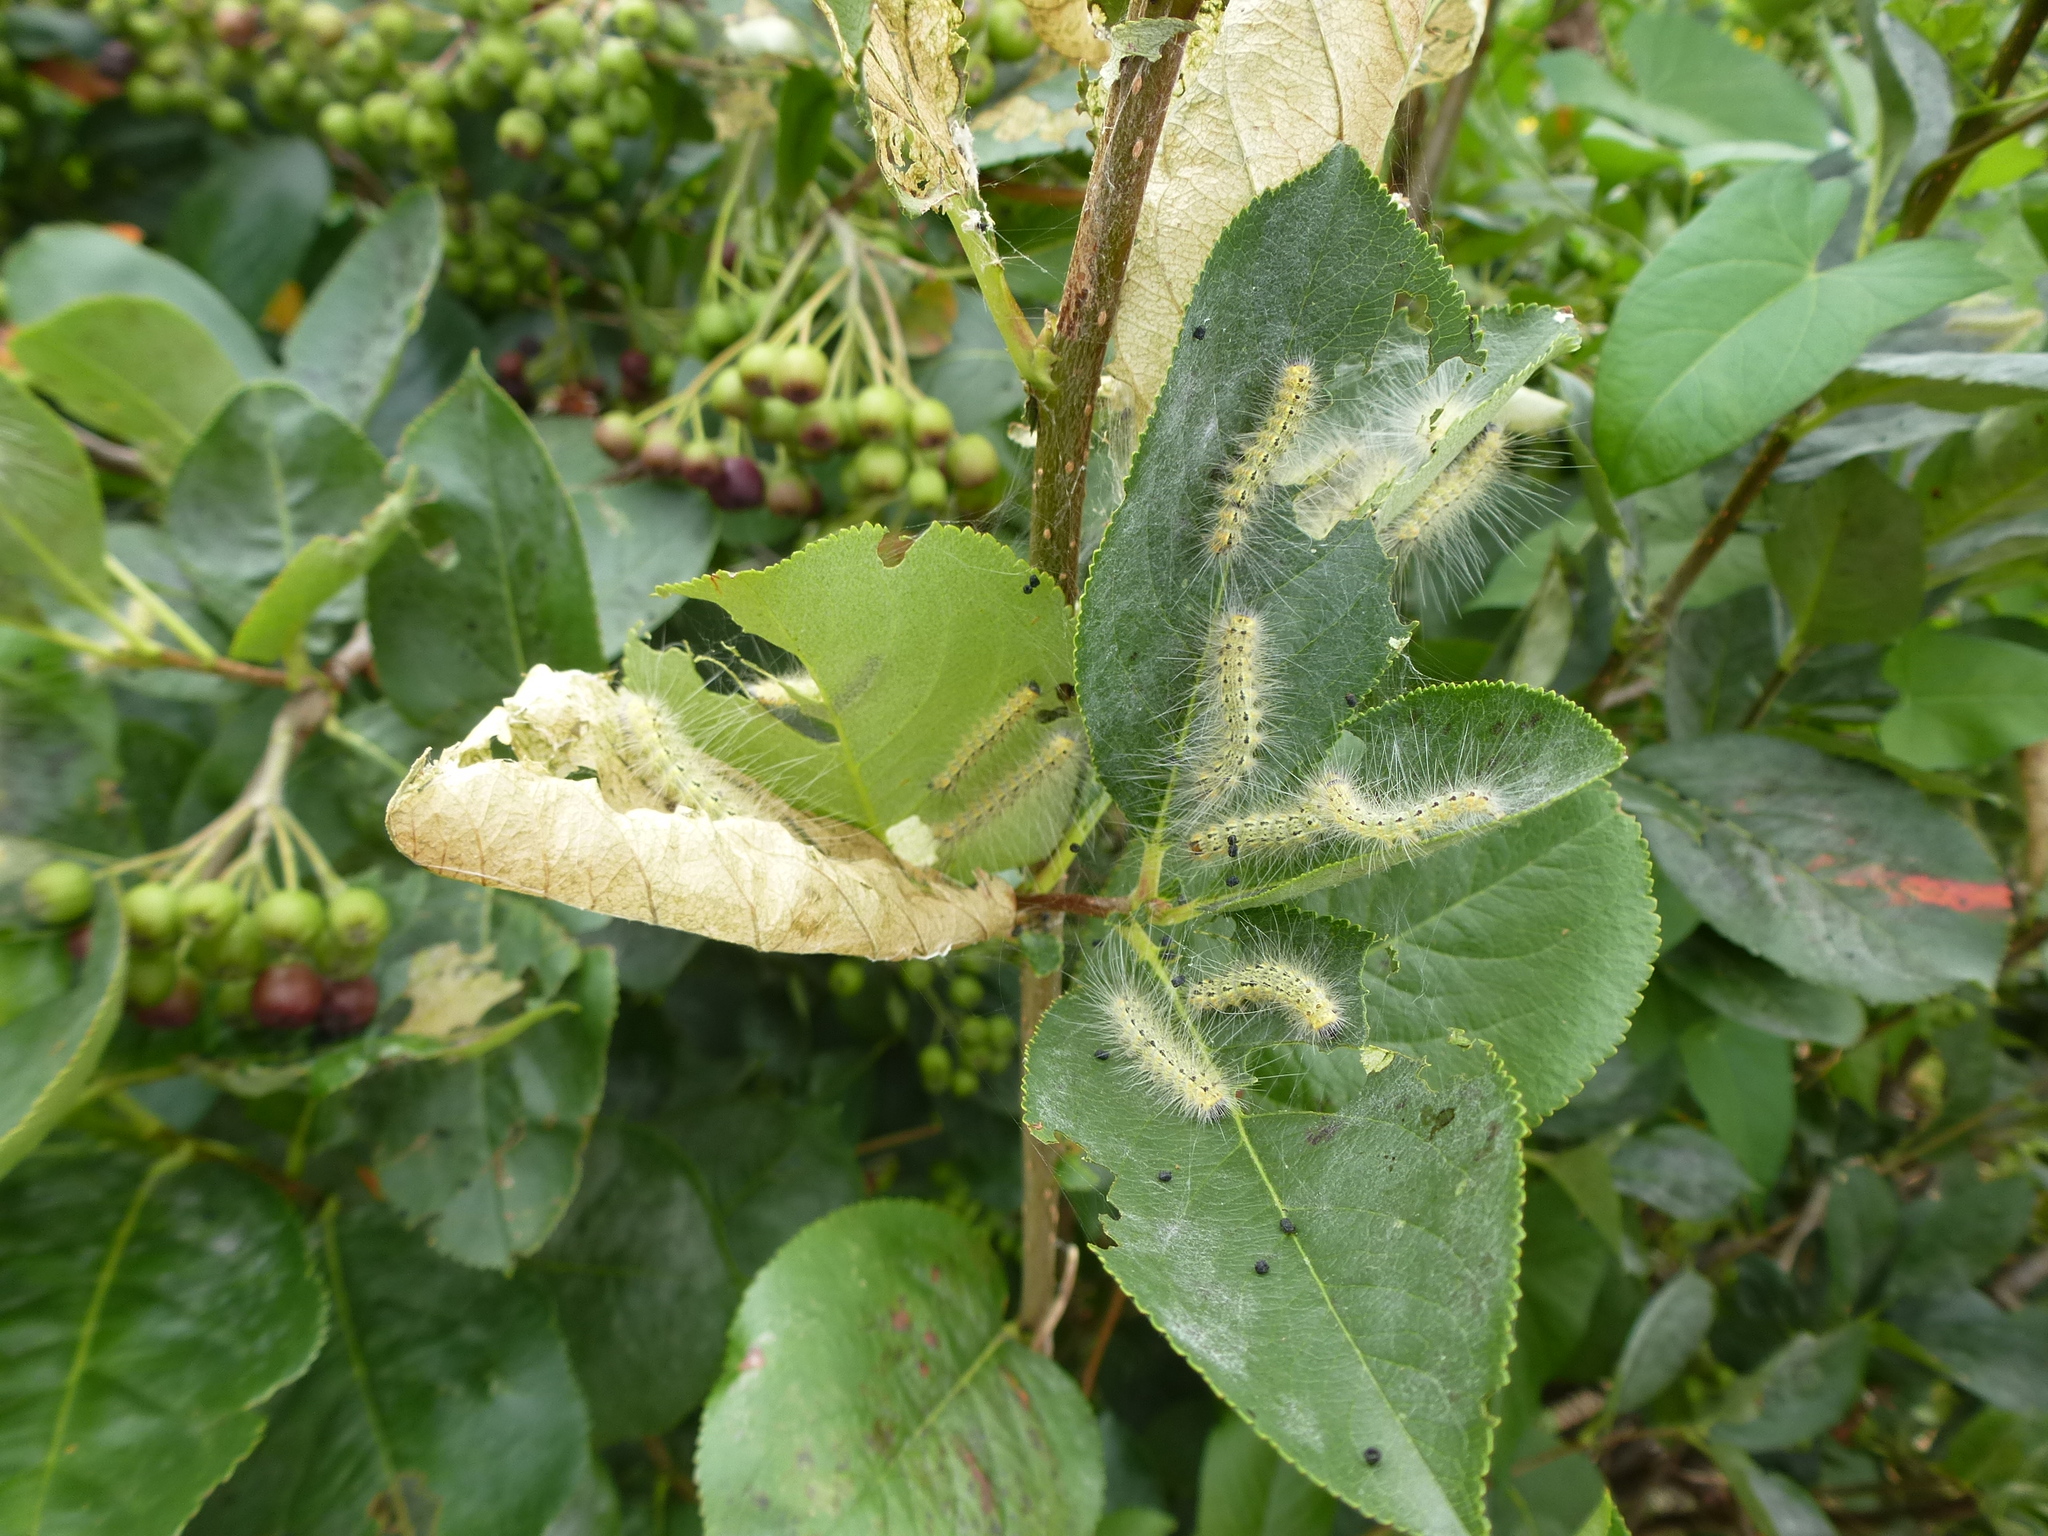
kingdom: Animalia
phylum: Arthropoda
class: Insecta
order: Lepidoptera
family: Erebidae
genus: Hyphantria
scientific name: Hyphantria cunea
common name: American white moth
